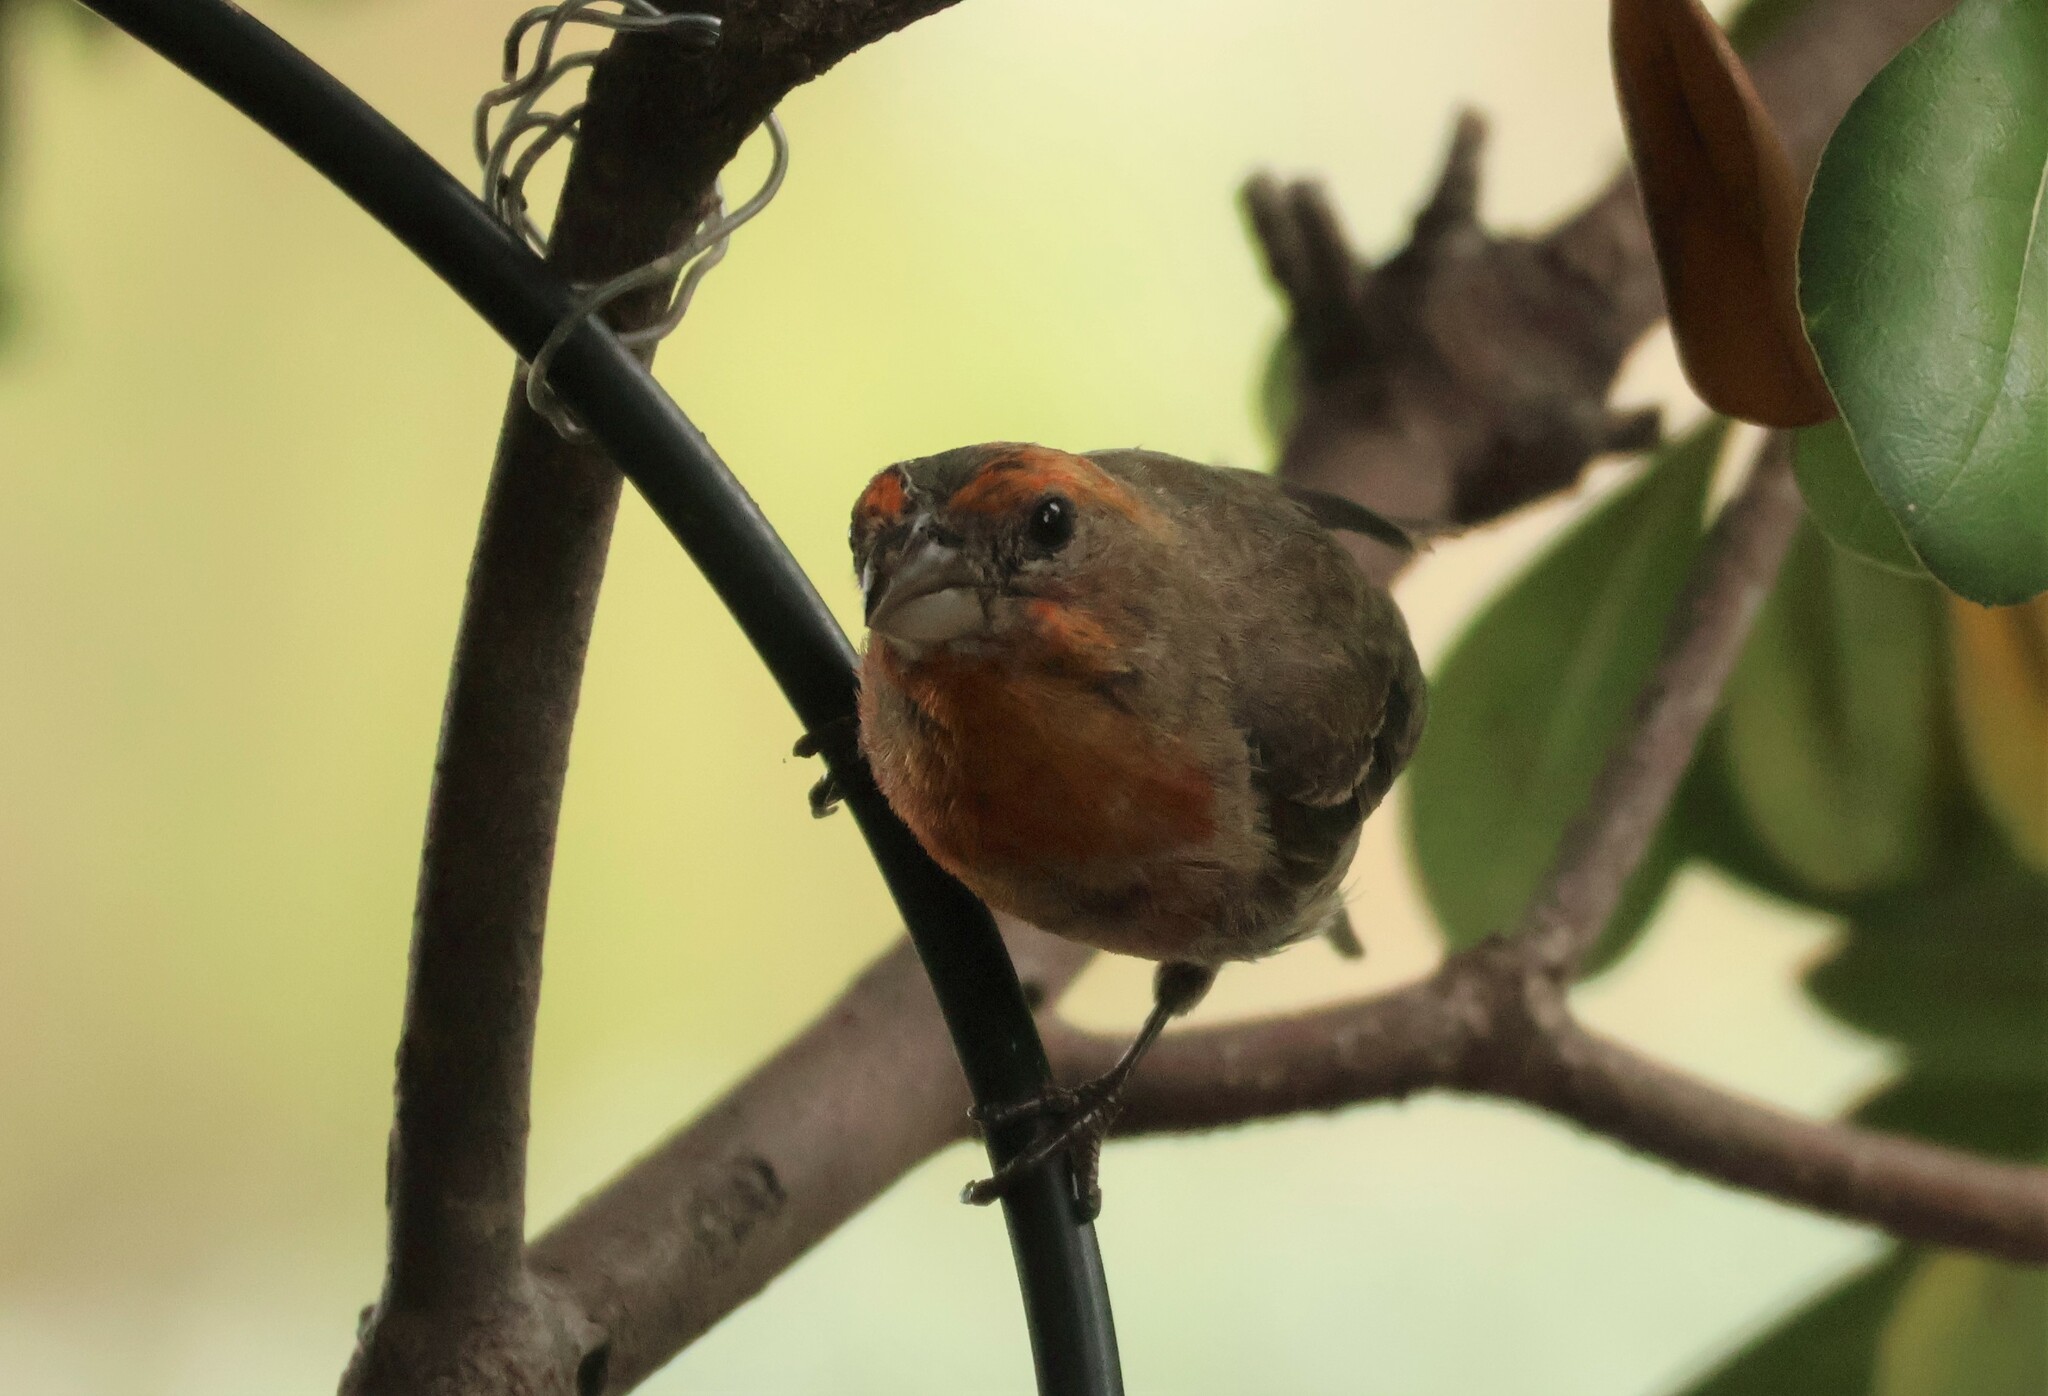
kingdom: Animalia
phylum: Chordata
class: Aves
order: Passeriformes
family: Fringillidae
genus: Haemorhous
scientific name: Haemorhous mexicanus
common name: House finch
